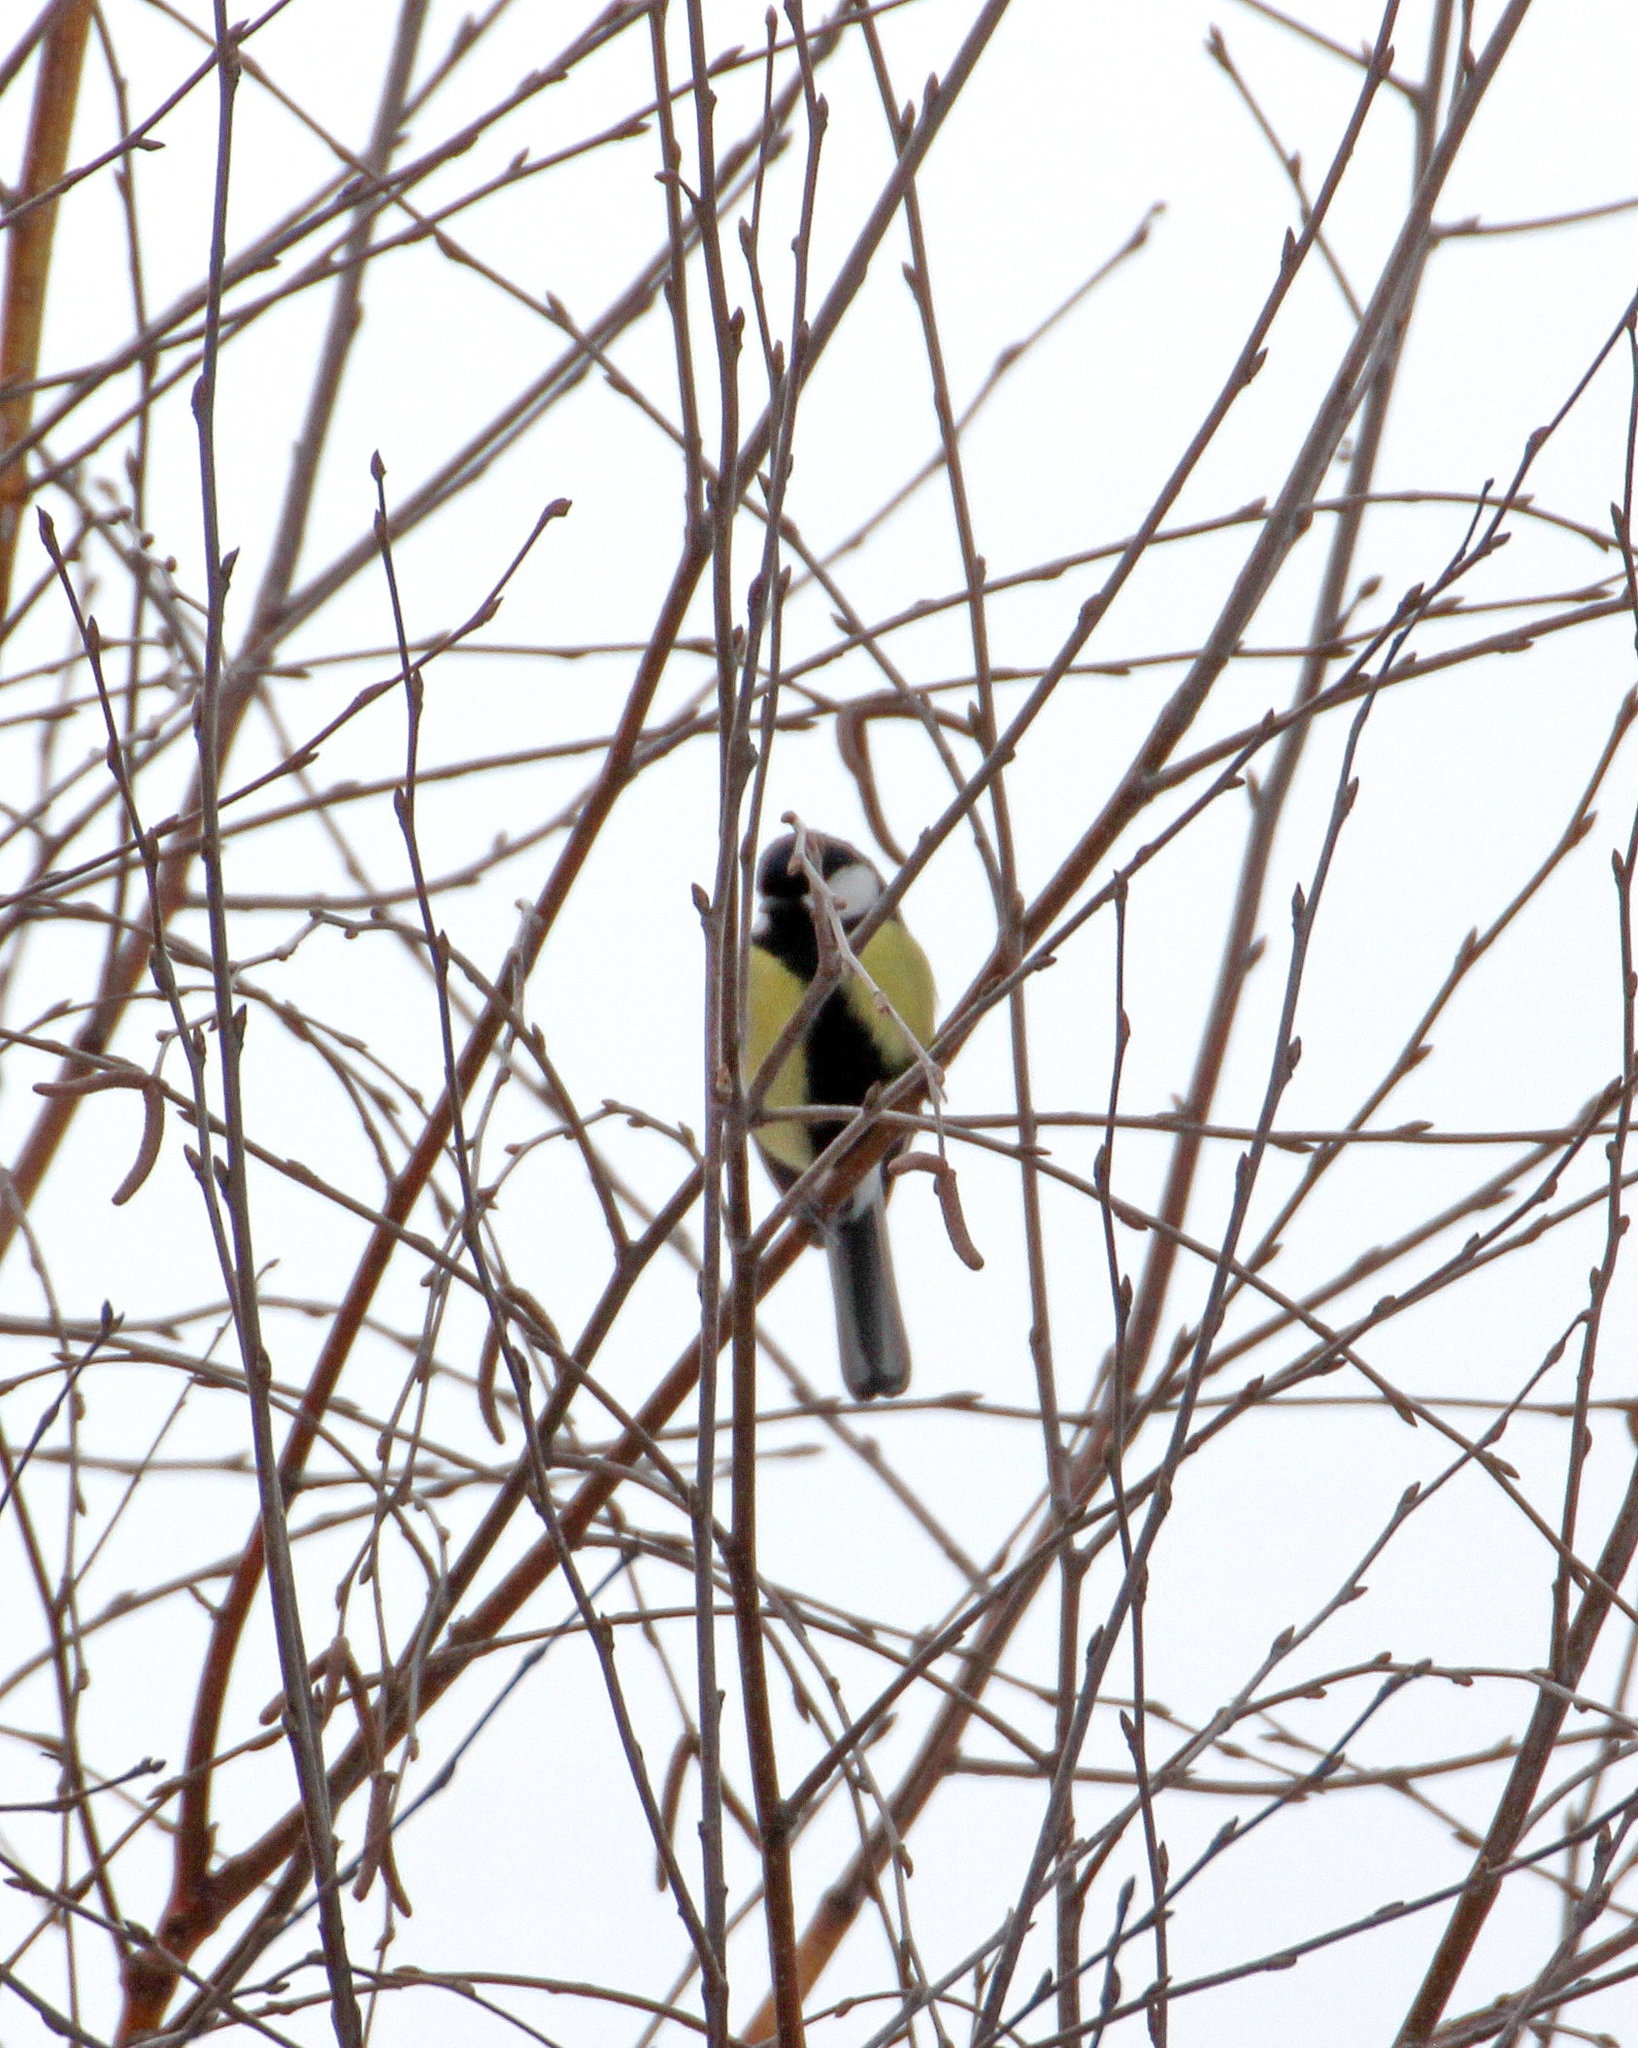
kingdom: Animalia
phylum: Chordata
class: Aves
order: Passeriformes
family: Paridae
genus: Parus
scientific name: Parus major
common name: Great tit
